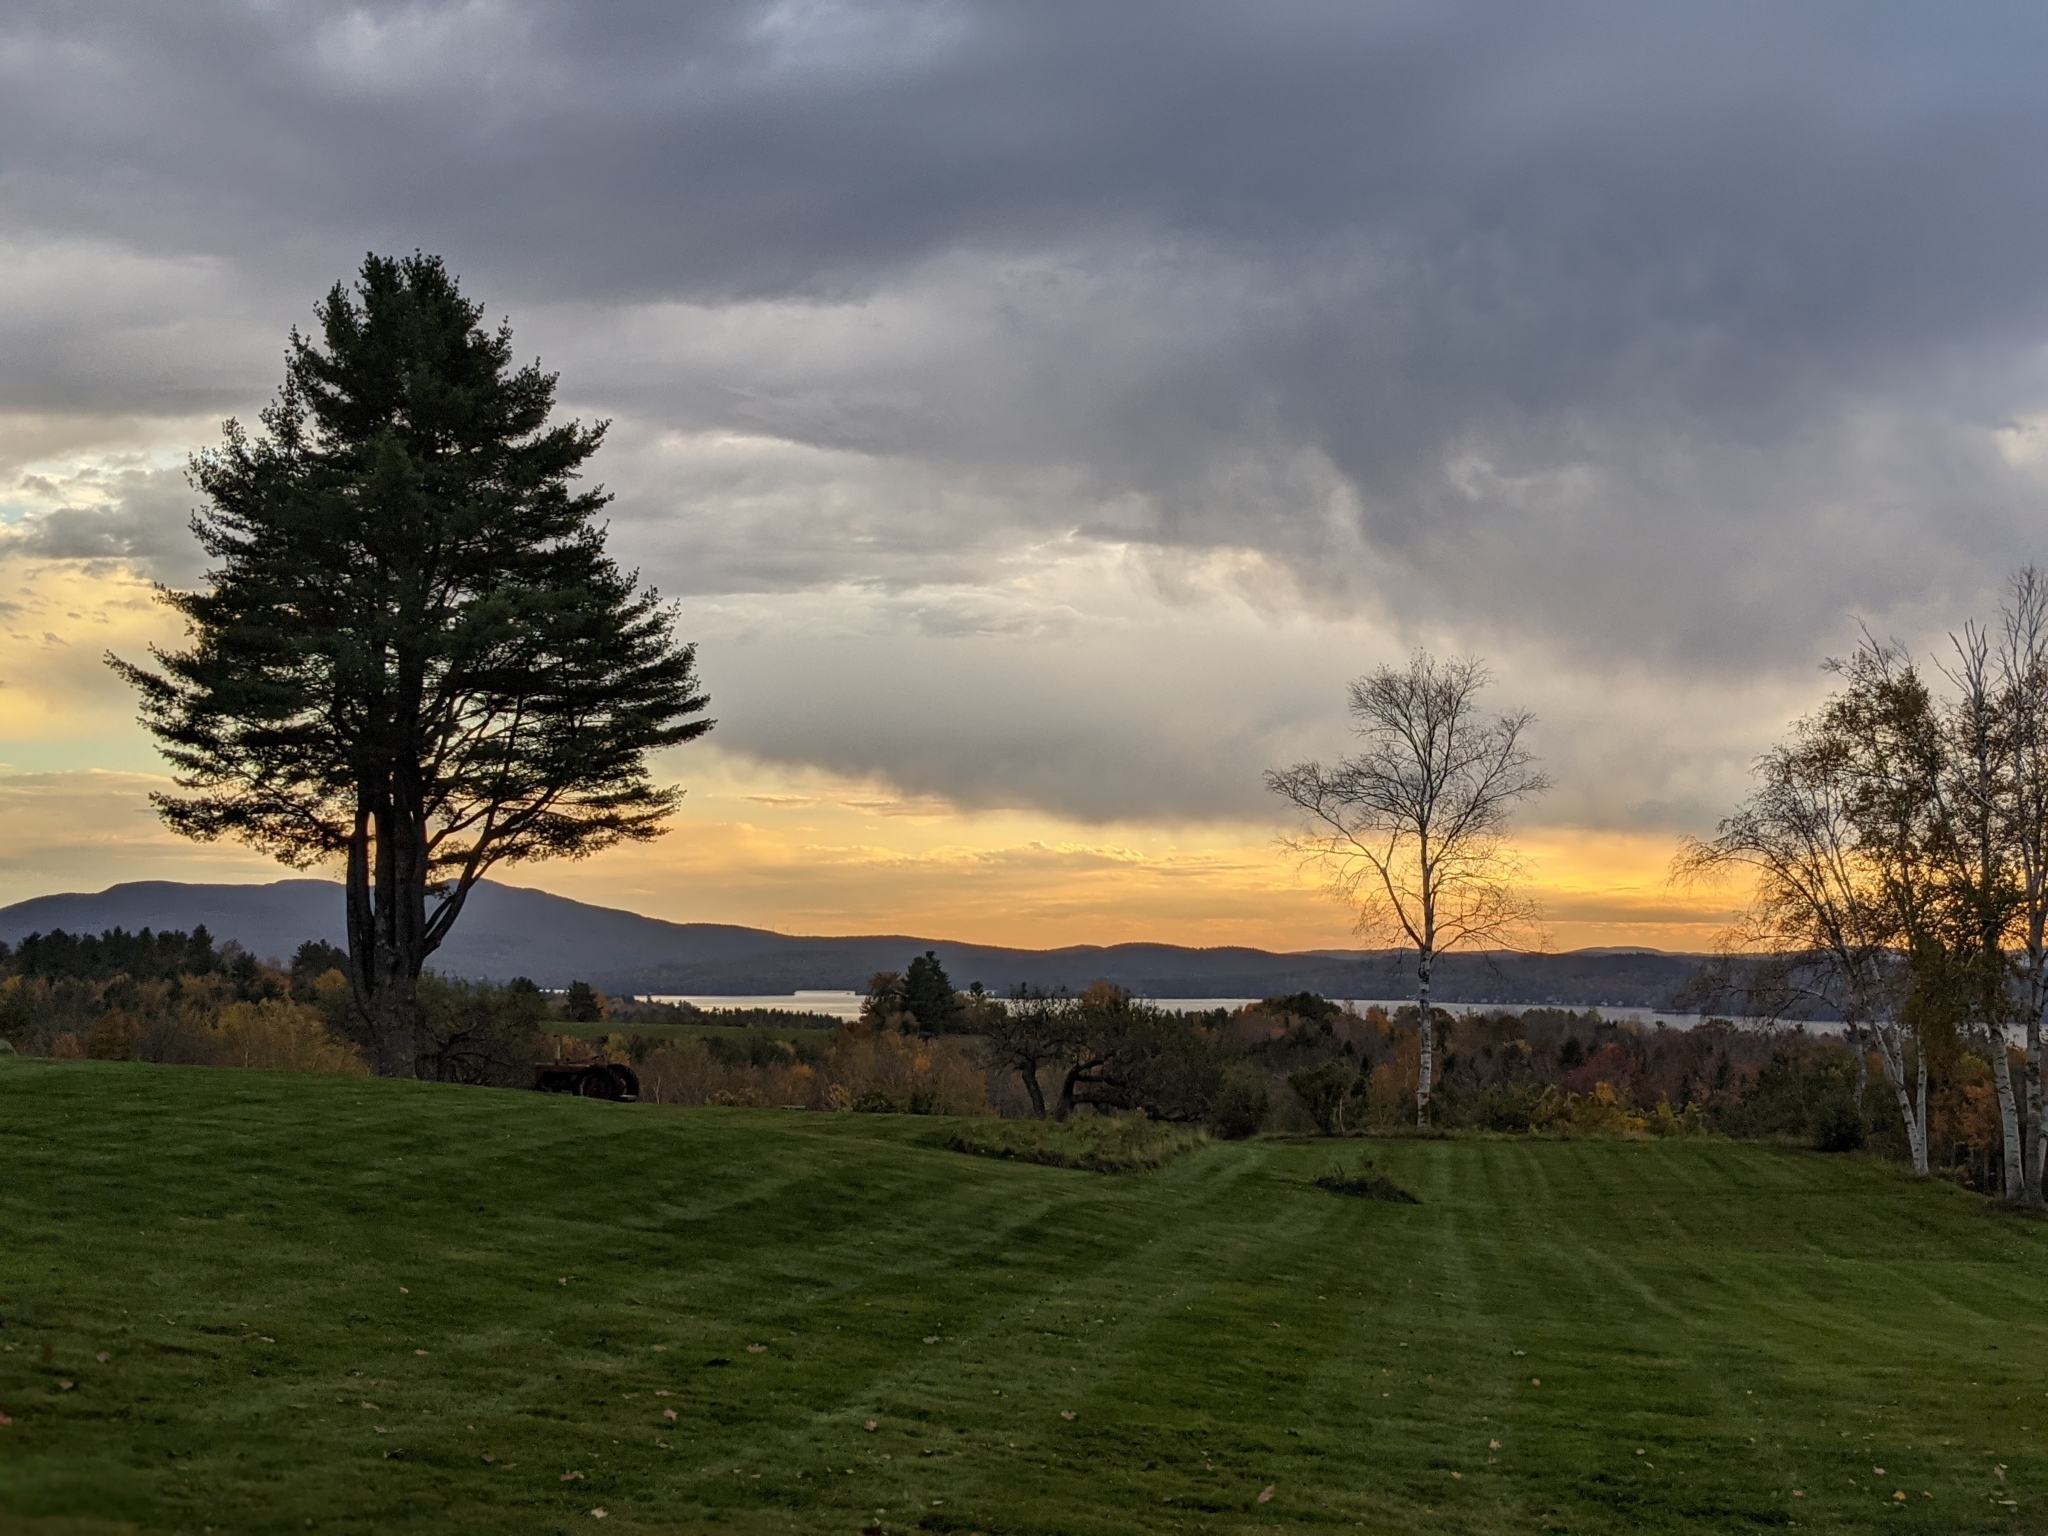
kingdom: Plantae
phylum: Tracheophyta
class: Pinopsida
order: Pinales
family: Pinaceae
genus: Pinus
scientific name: Pinus strobus
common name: Weymouth pine
